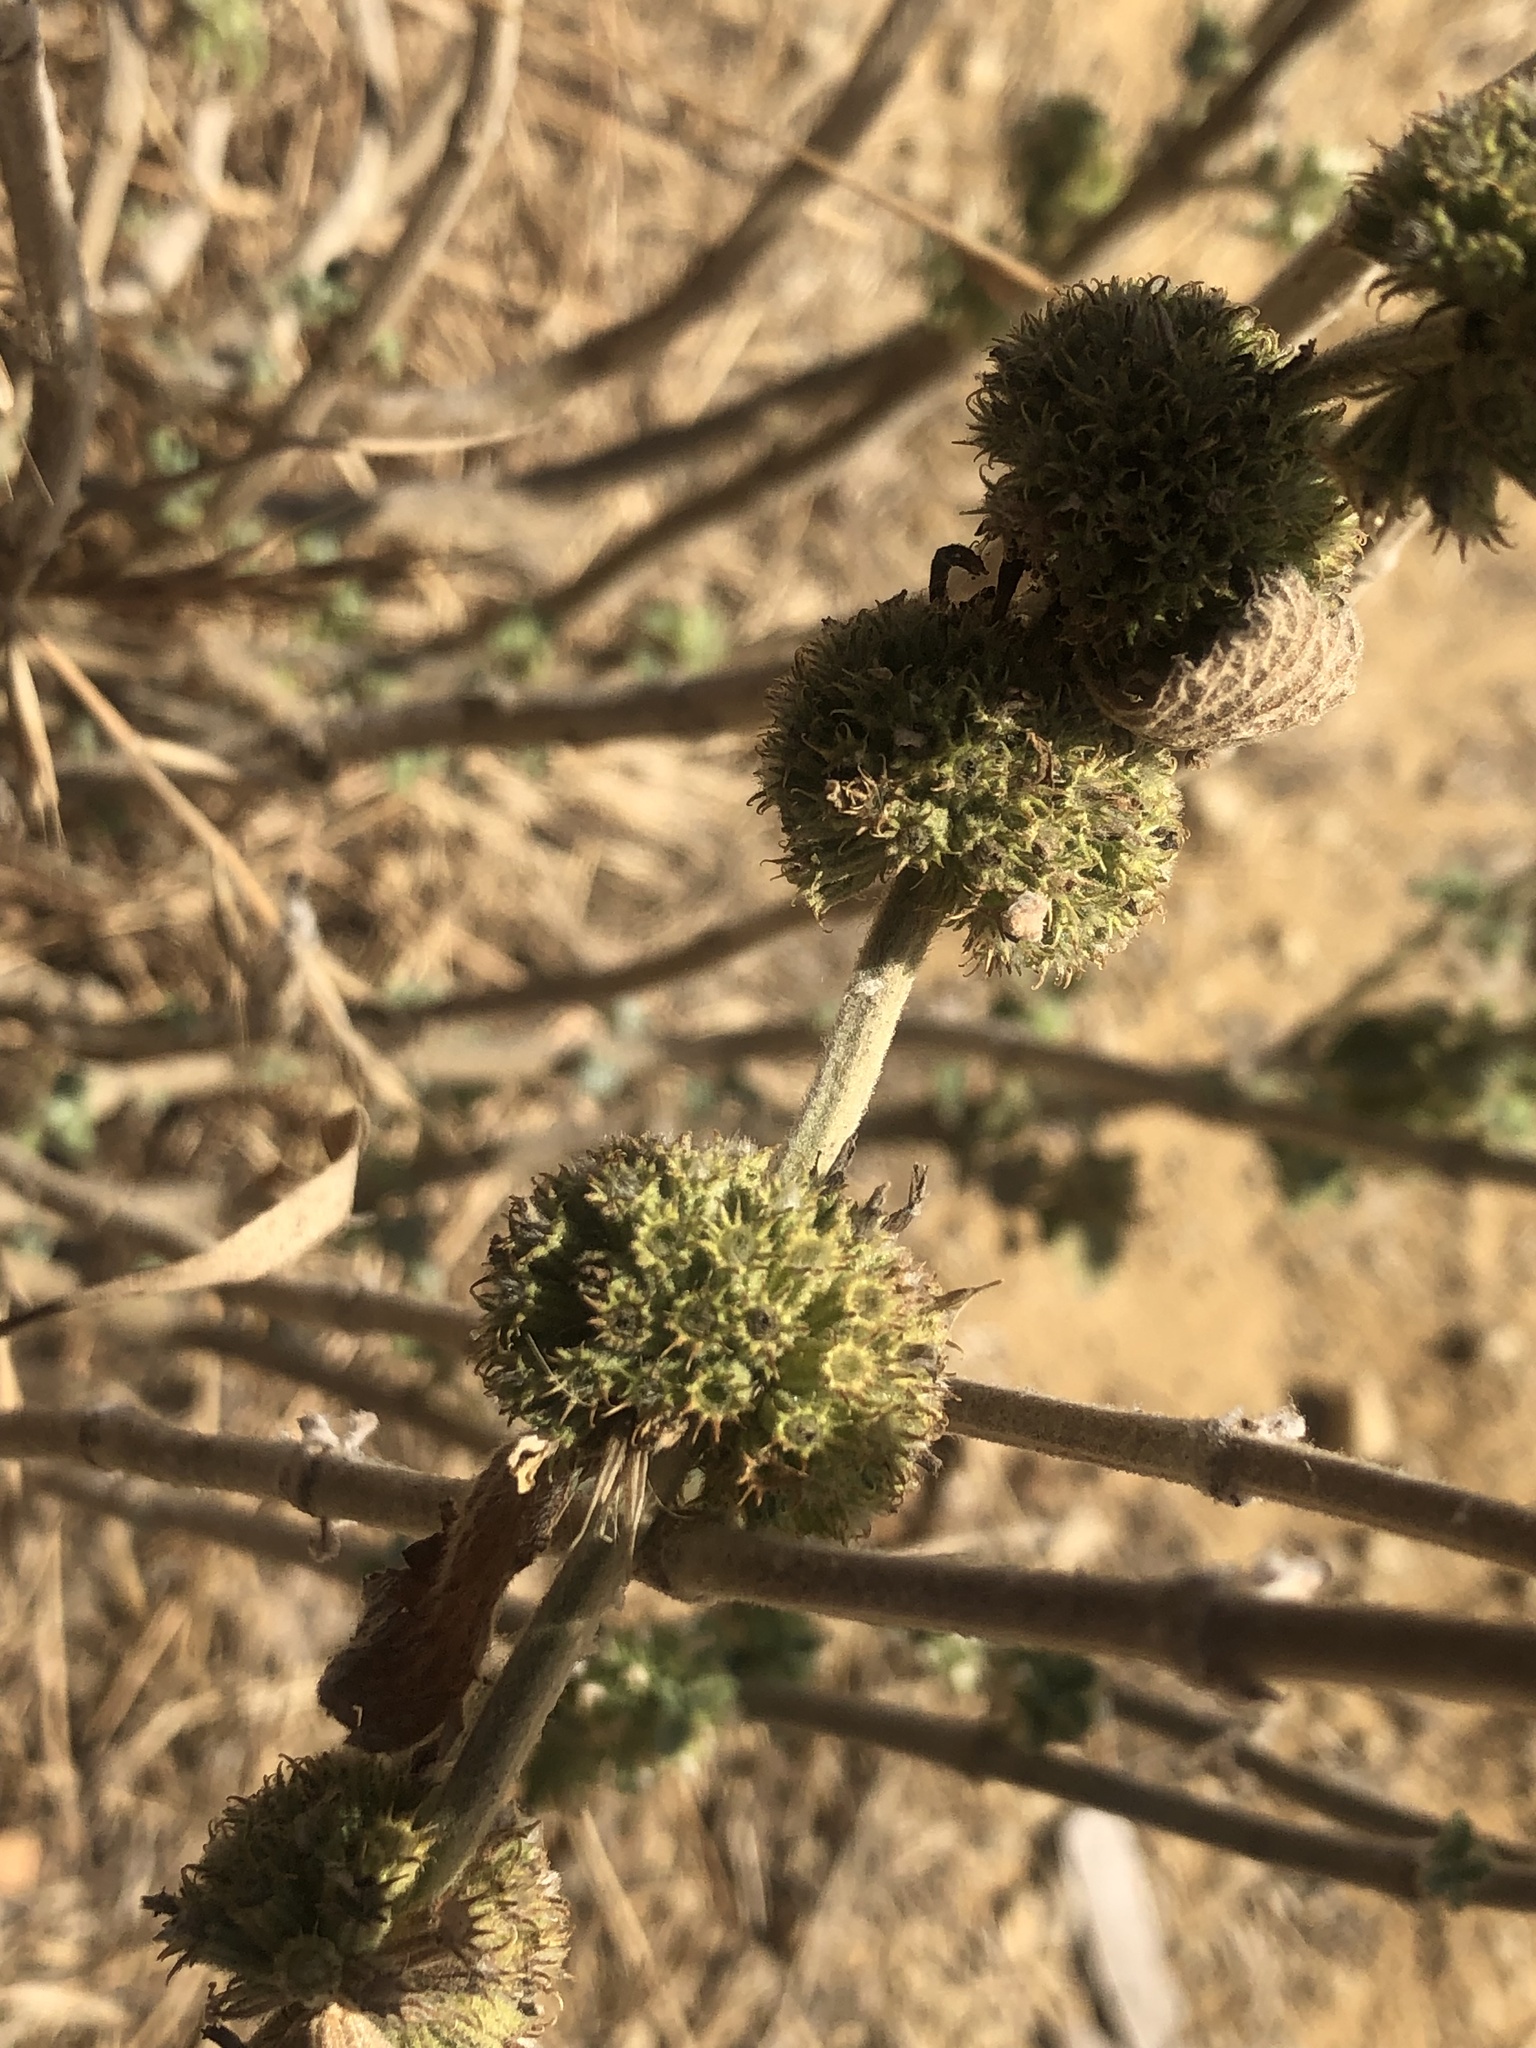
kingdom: Plantae
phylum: Tracheophyta
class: Magnoliopsida
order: Lamiales
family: Lamiaceae
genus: Marrubium
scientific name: Marrubium vulgare
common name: Horehound
